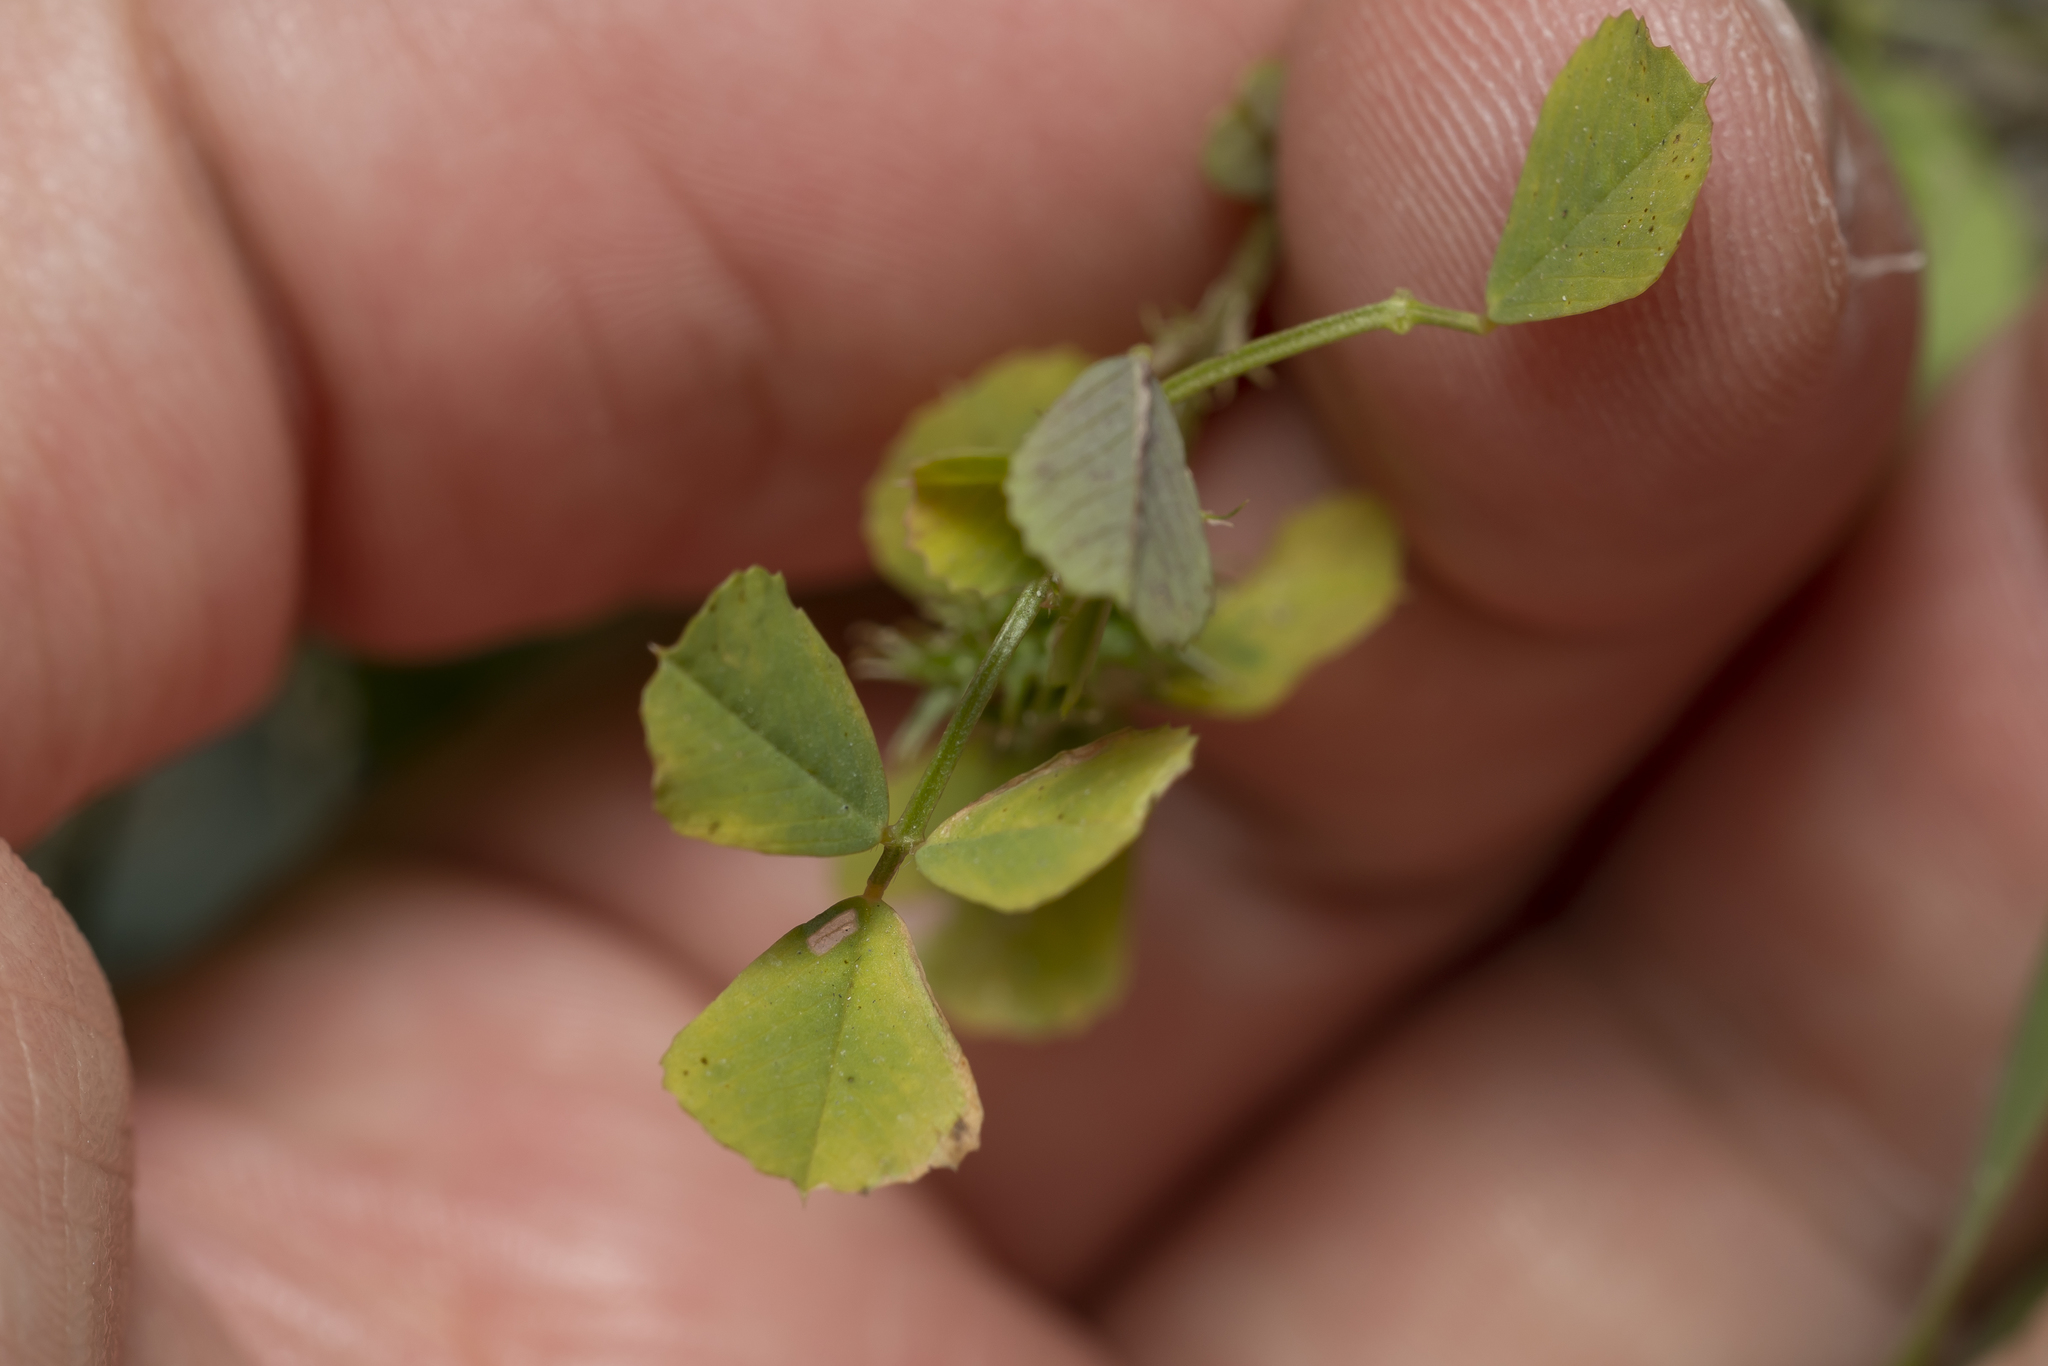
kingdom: Plantae
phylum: Tracheophyta
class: Magnoliopsida
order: Fabales
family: Fabaceae
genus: Medicago
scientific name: Medicago polymorpha
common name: Burclover
